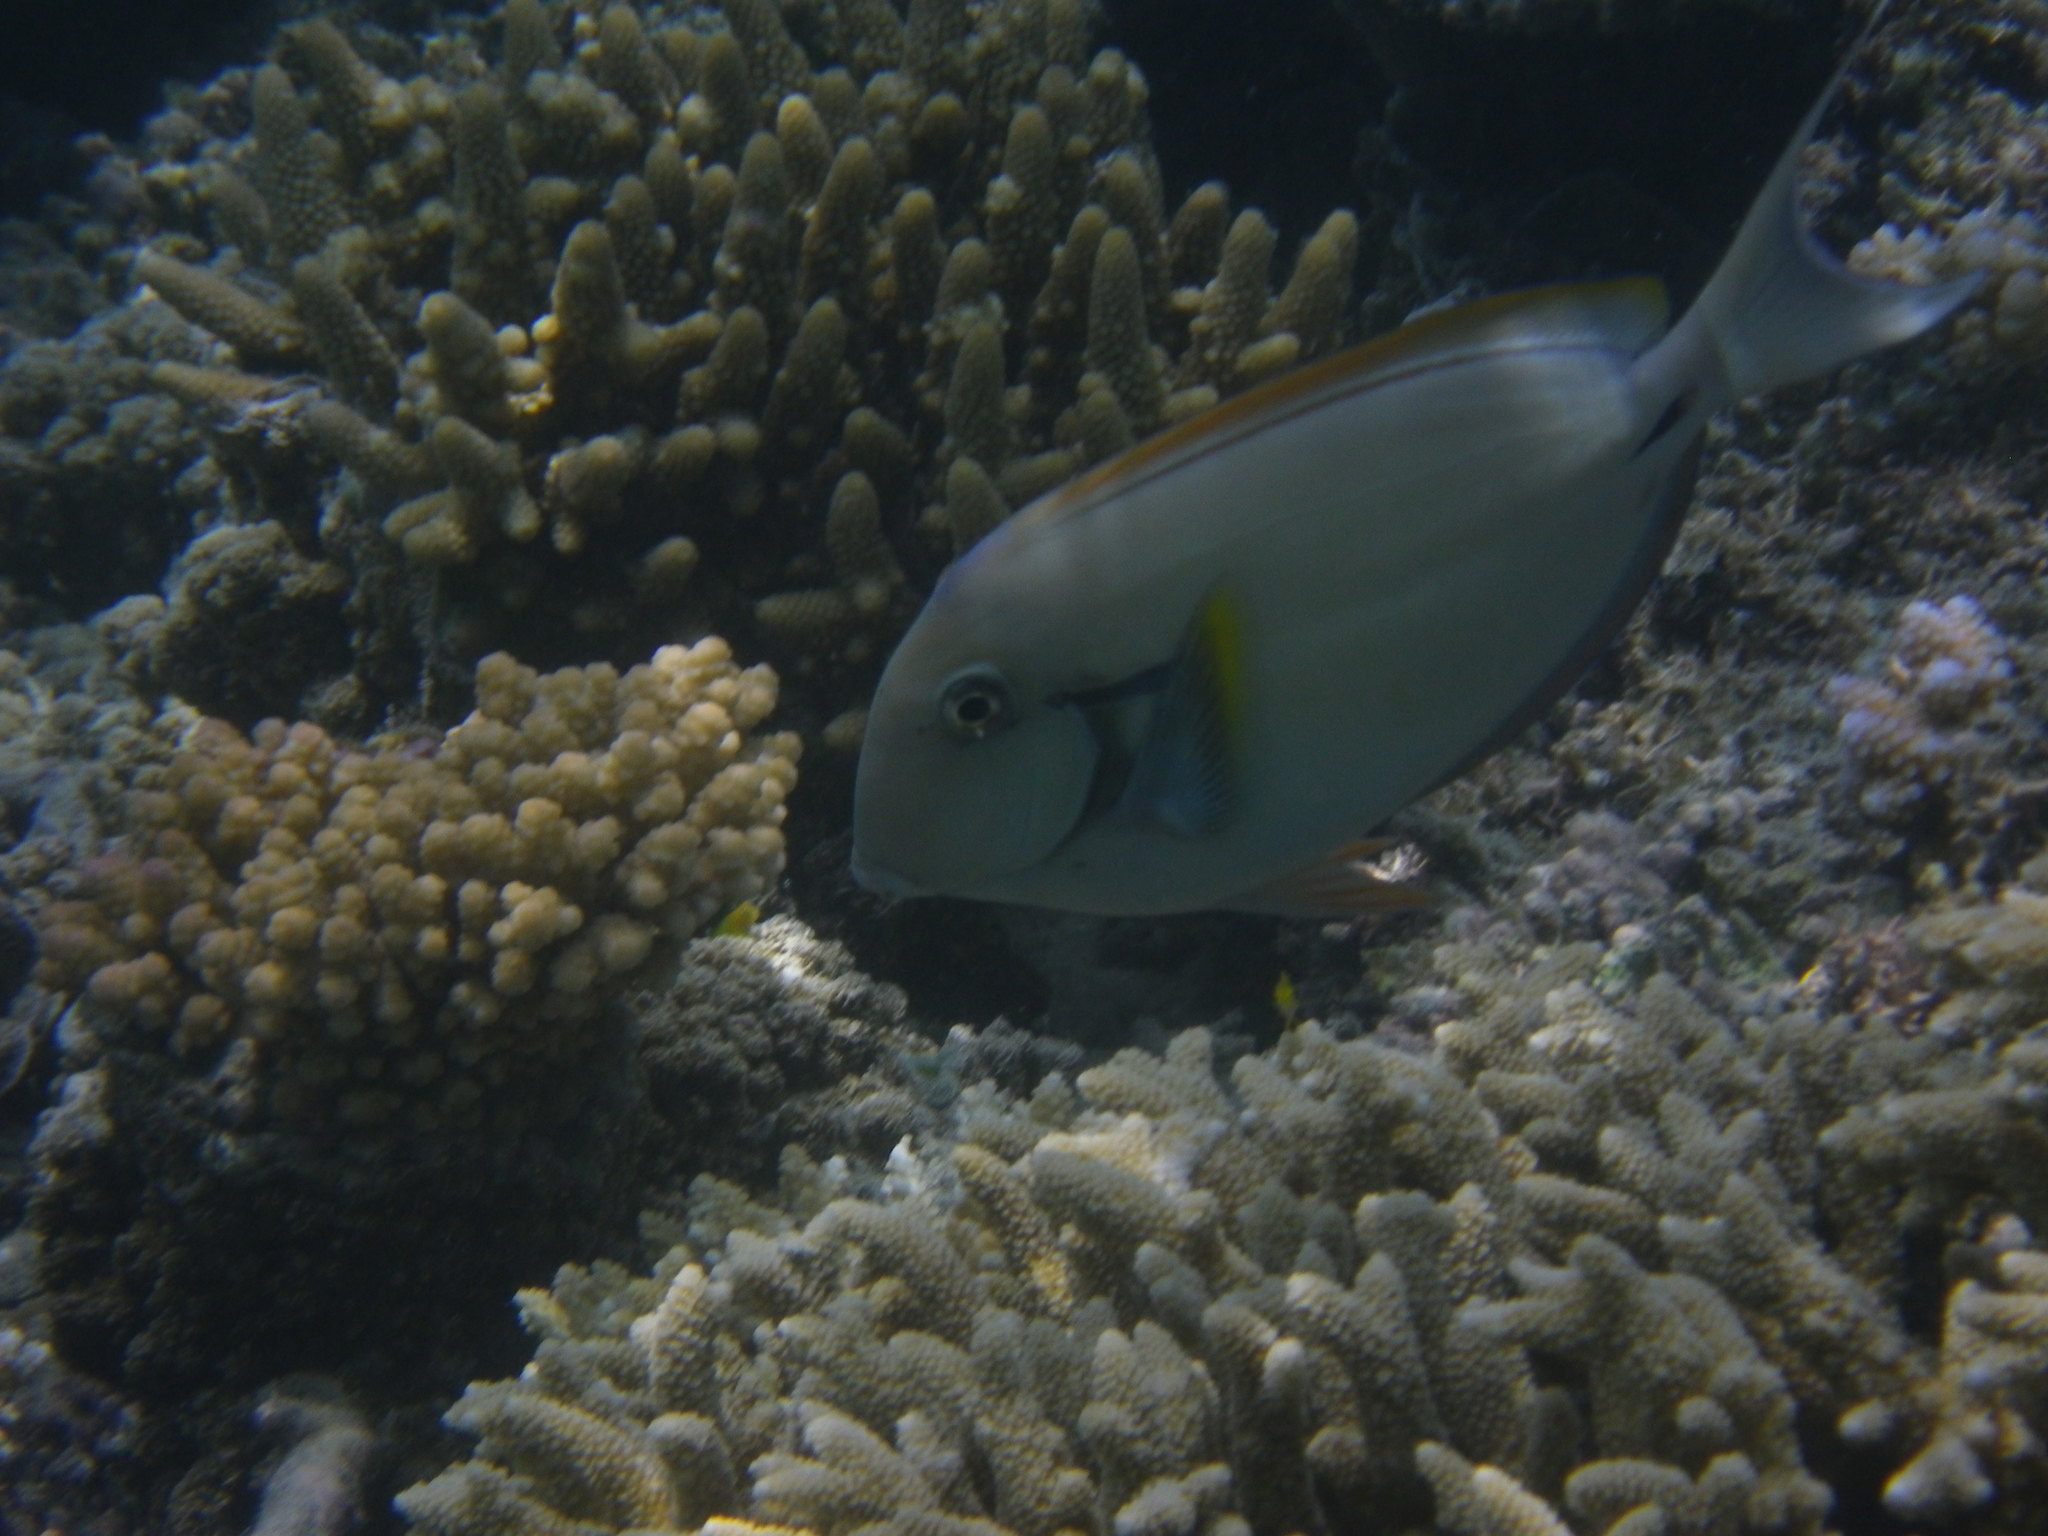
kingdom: Animalia
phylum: Chordata
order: Perciformes
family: Acanthuridae
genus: Acanthurus
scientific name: Acanthurus nigricauda
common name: Black-barred surgeonfish
